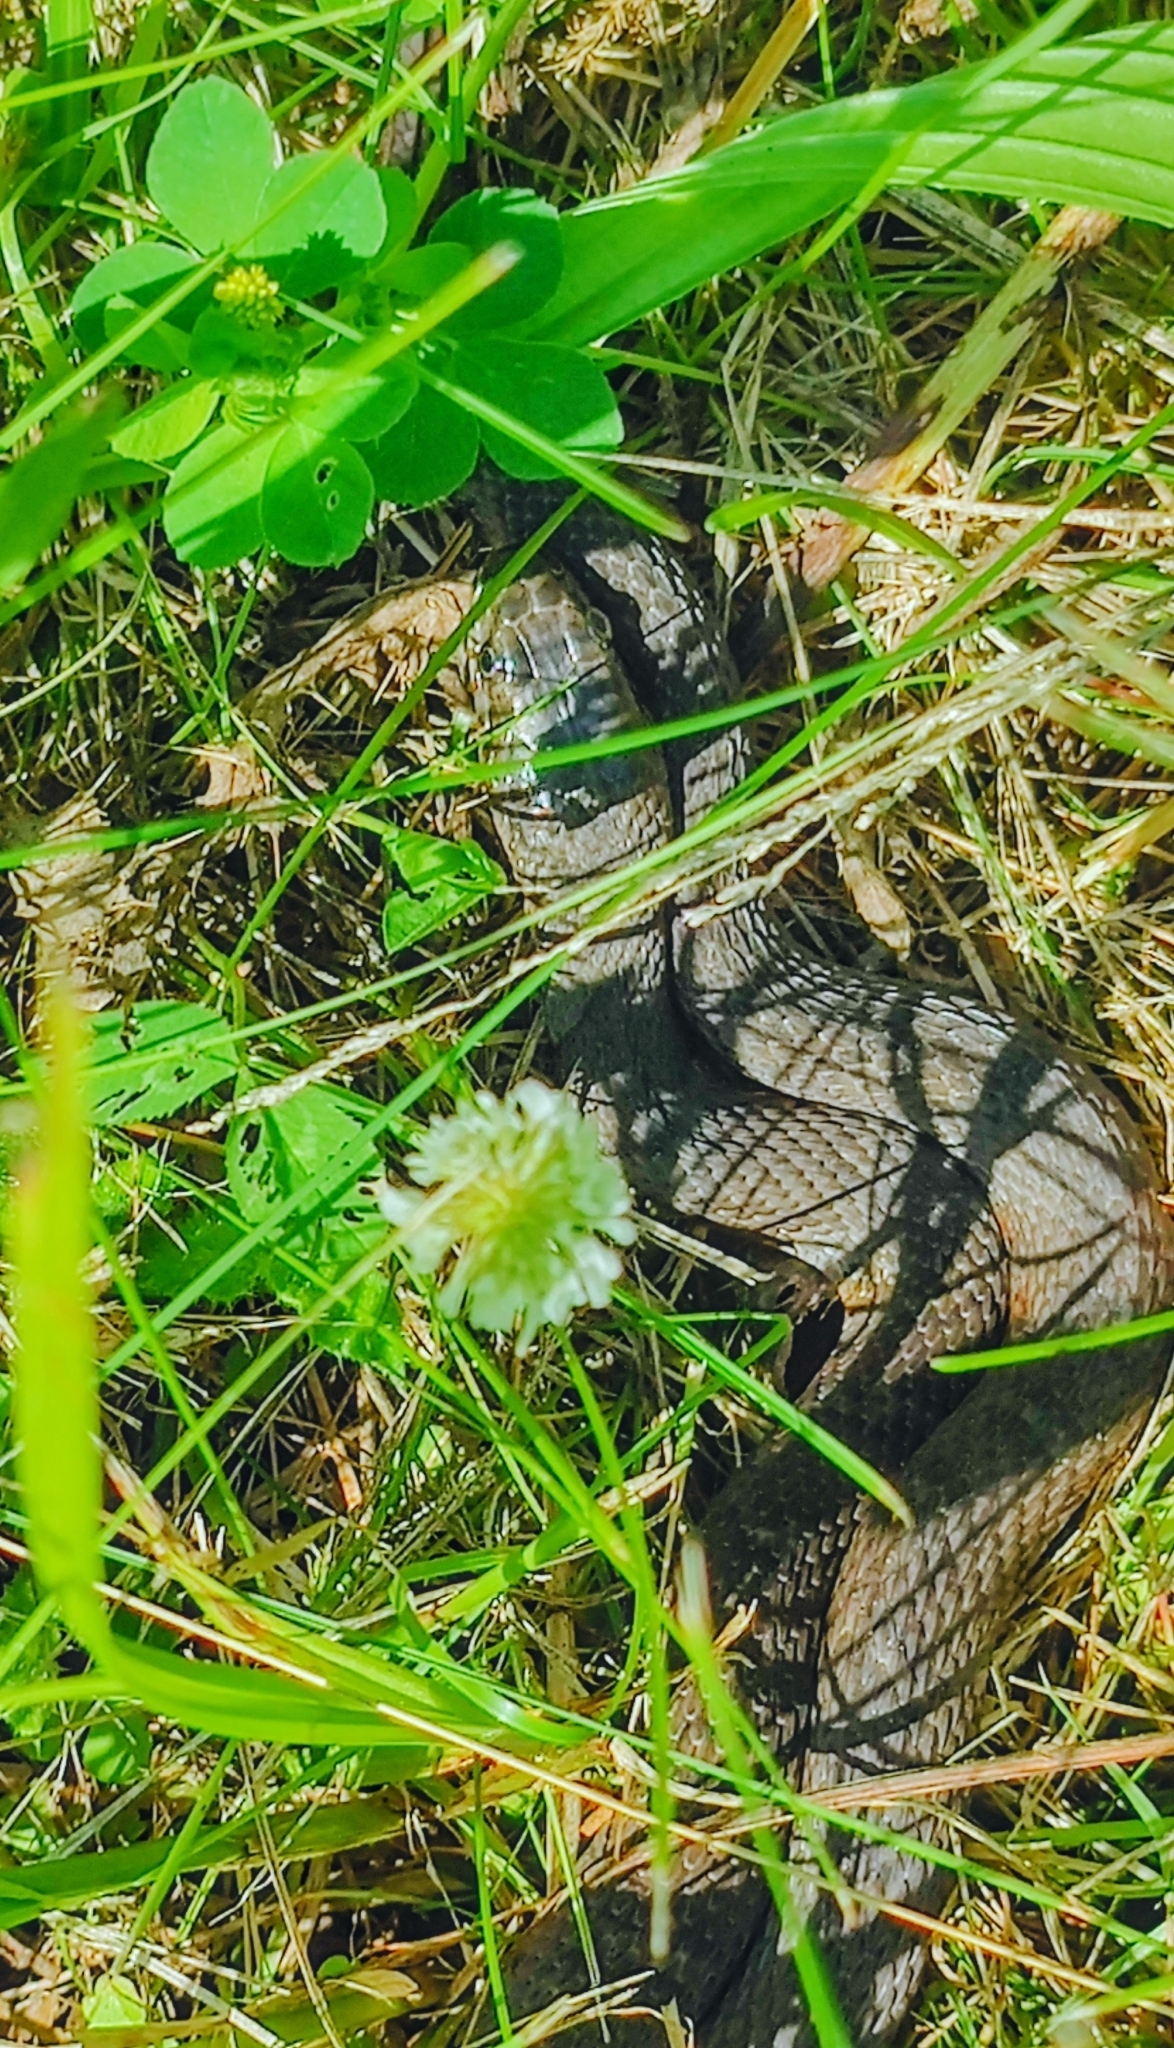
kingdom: Animalia
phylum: Chordata
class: Squamata
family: Colubridae
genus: Nerodia
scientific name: Nerodia sipedon
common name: Northern water snake
